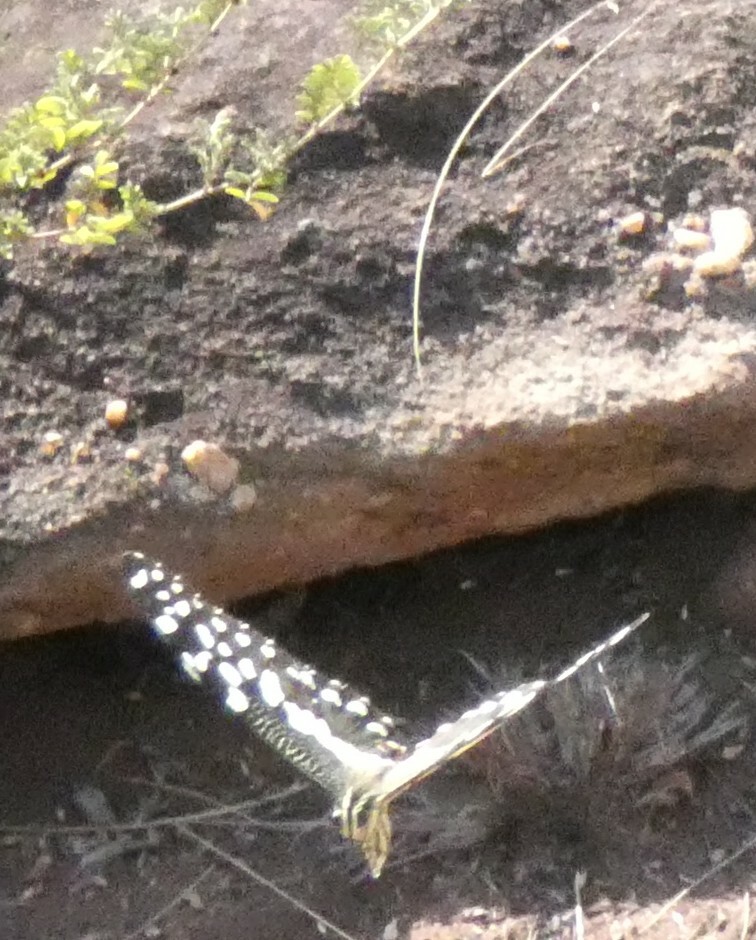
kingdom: Animalia
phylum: Arthropoda
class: Insecta
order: Lepidoptera
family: Papilionidae
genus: Papilio
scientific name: Papilio demodocus
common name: Christmas butterfly
